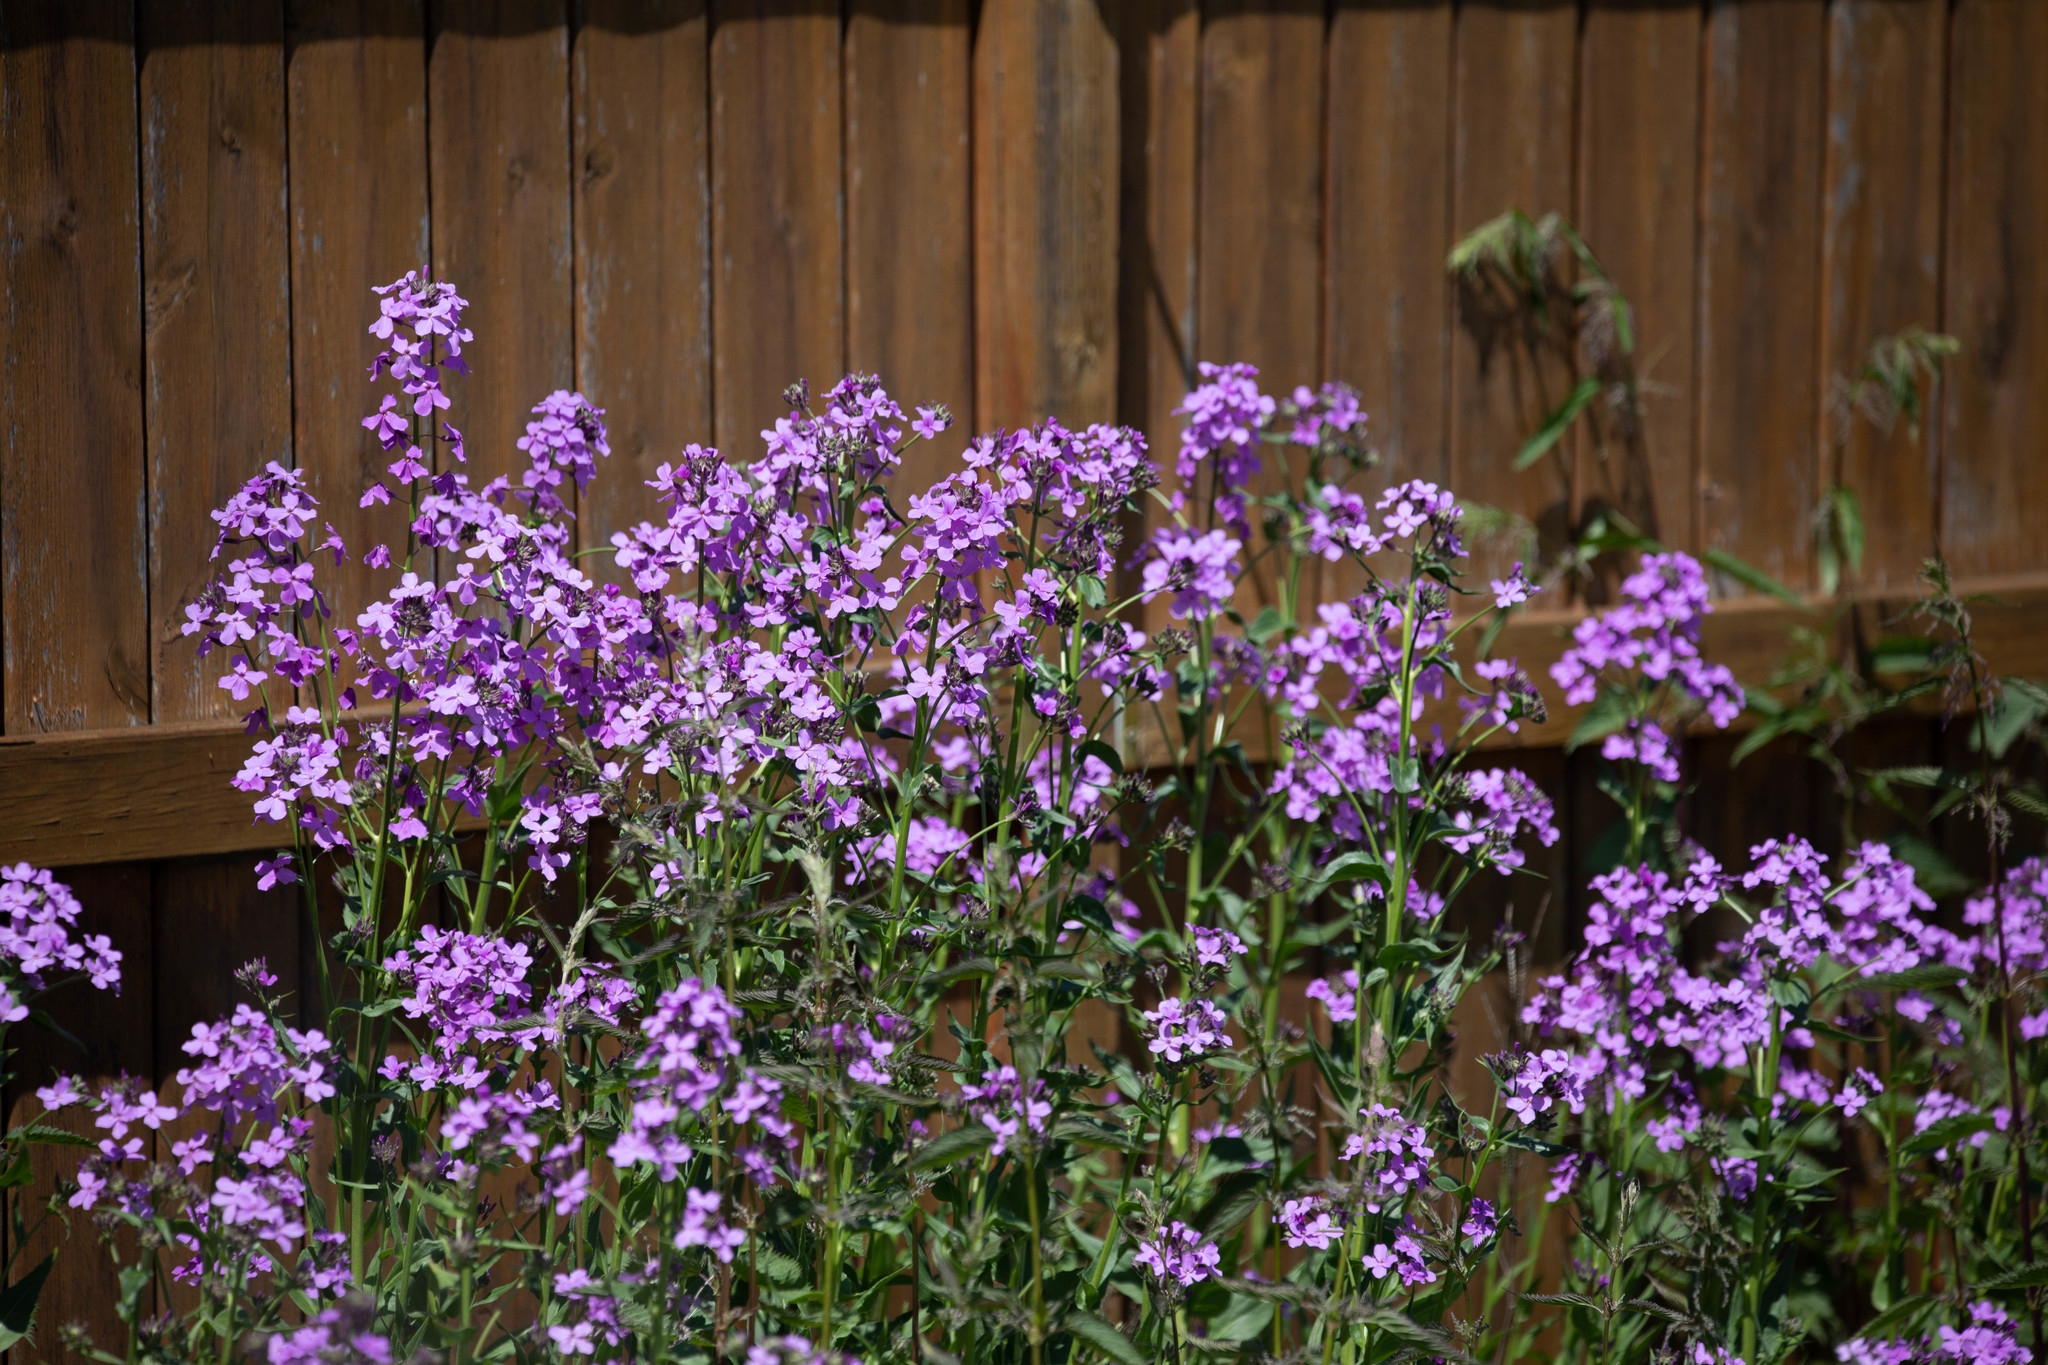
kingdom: Plantae
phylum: Tracheophyta
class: Magnoliopsida
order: Brassicales
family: Brassicaceae
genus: Hesperis
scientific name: Hesperis matronalis
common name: Dame's-violet
